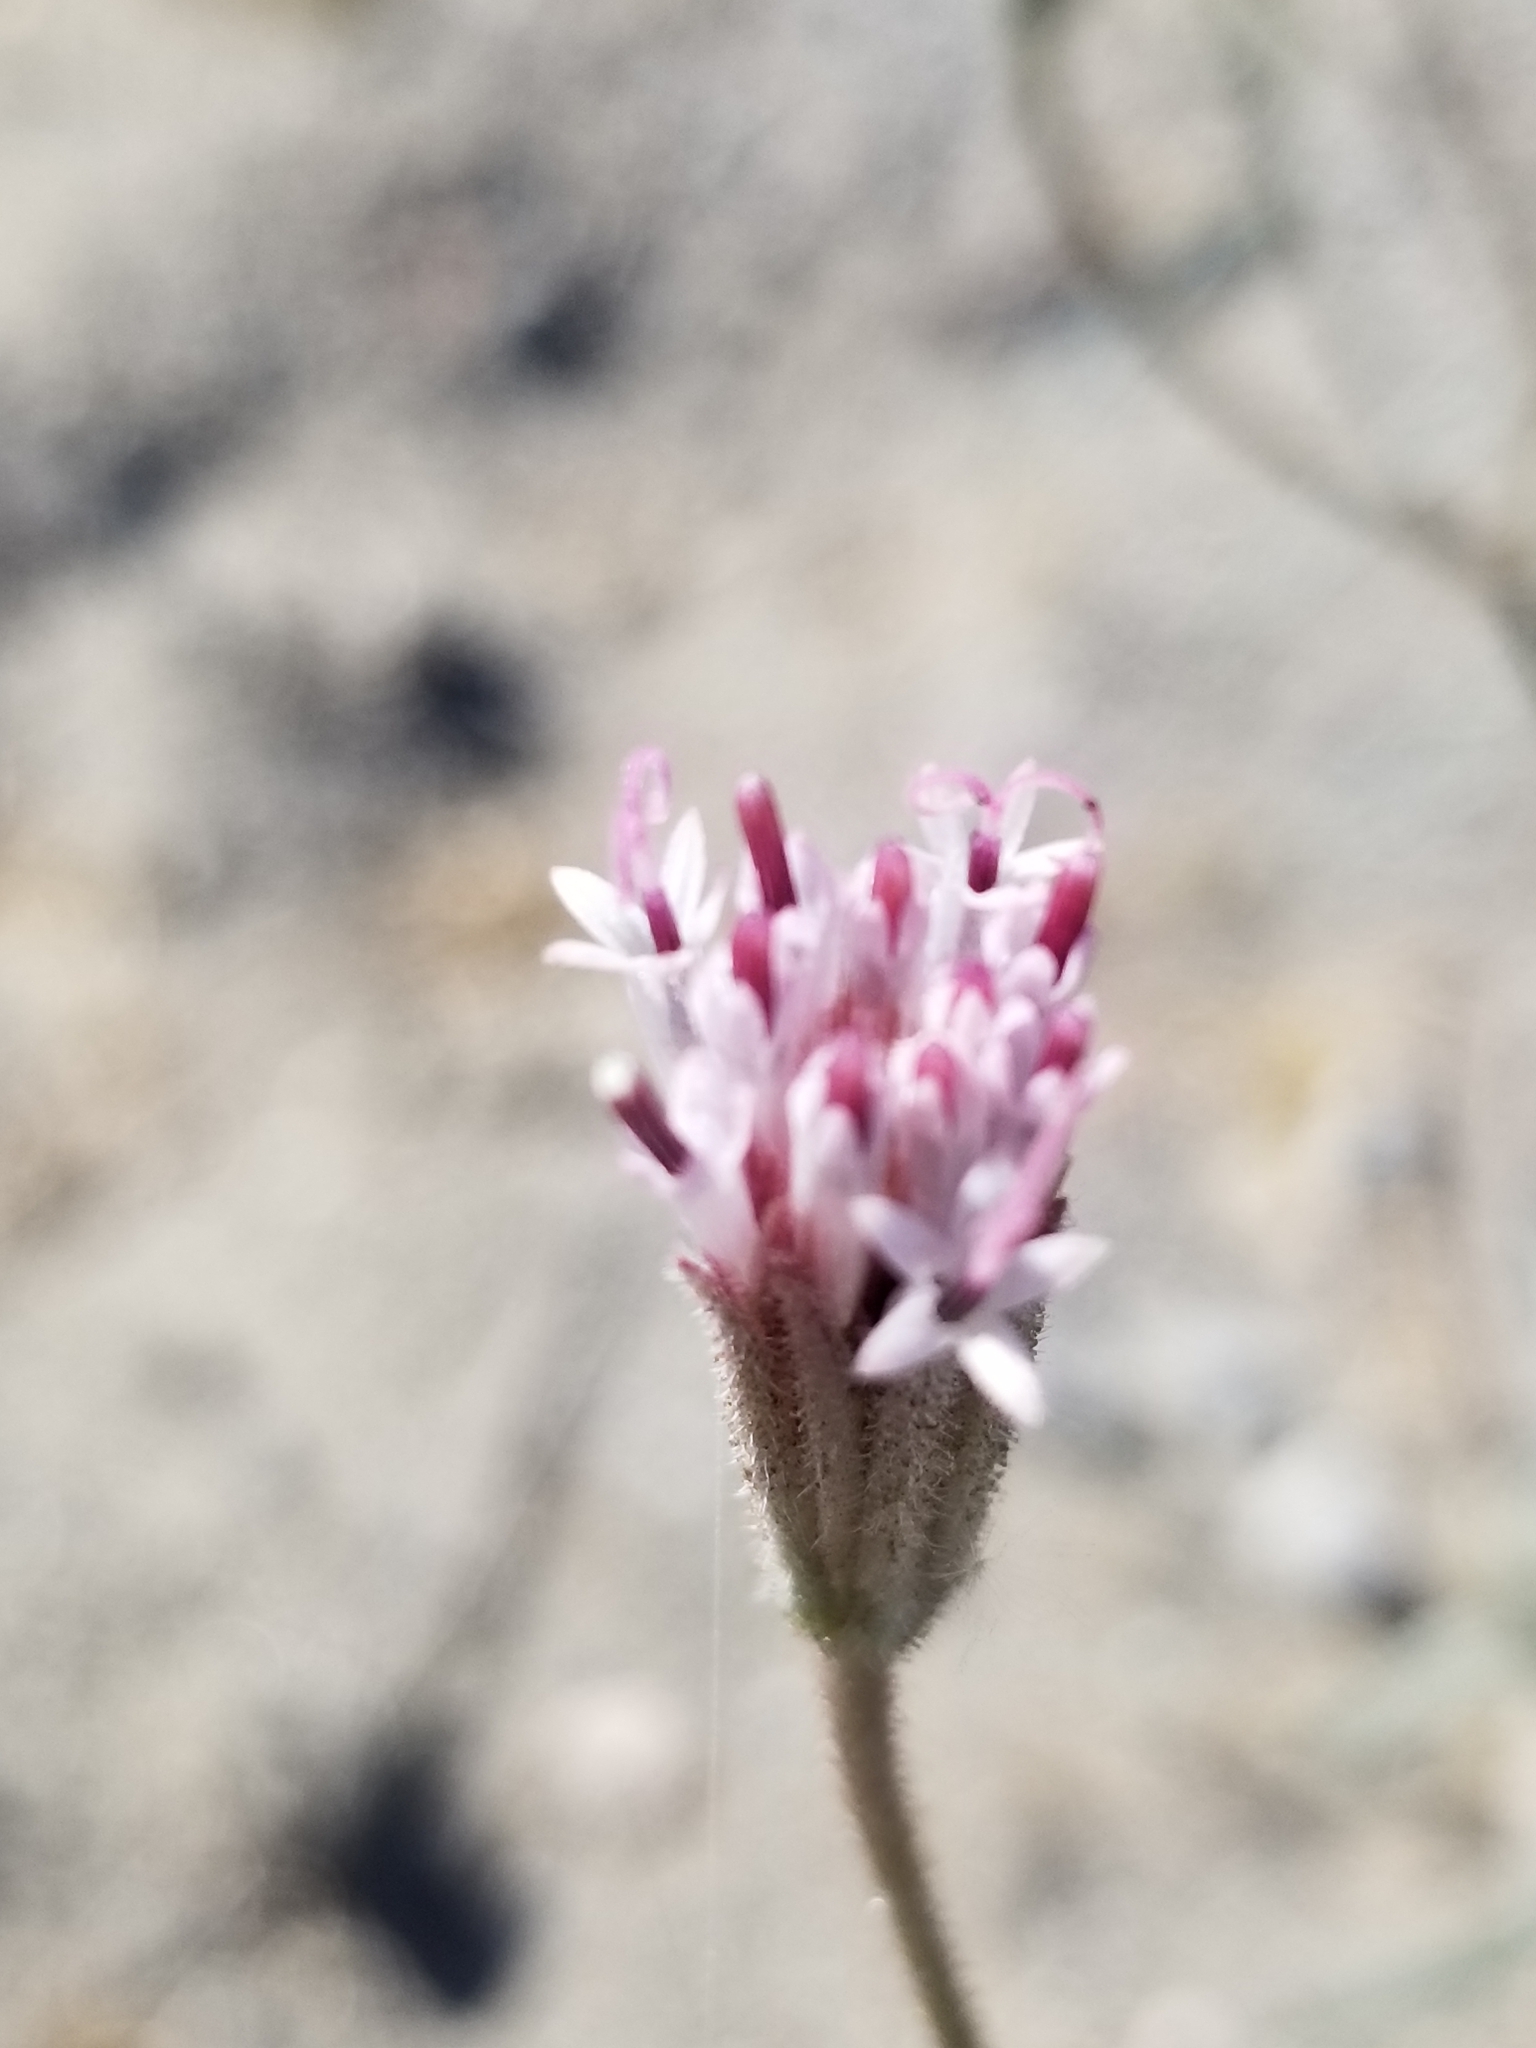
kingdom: Plantae
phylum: Tracheophyta
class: Magnoliopsida
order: Asterales
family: Asteraceae
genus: Palafoxia
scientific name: Palafoxia arida
